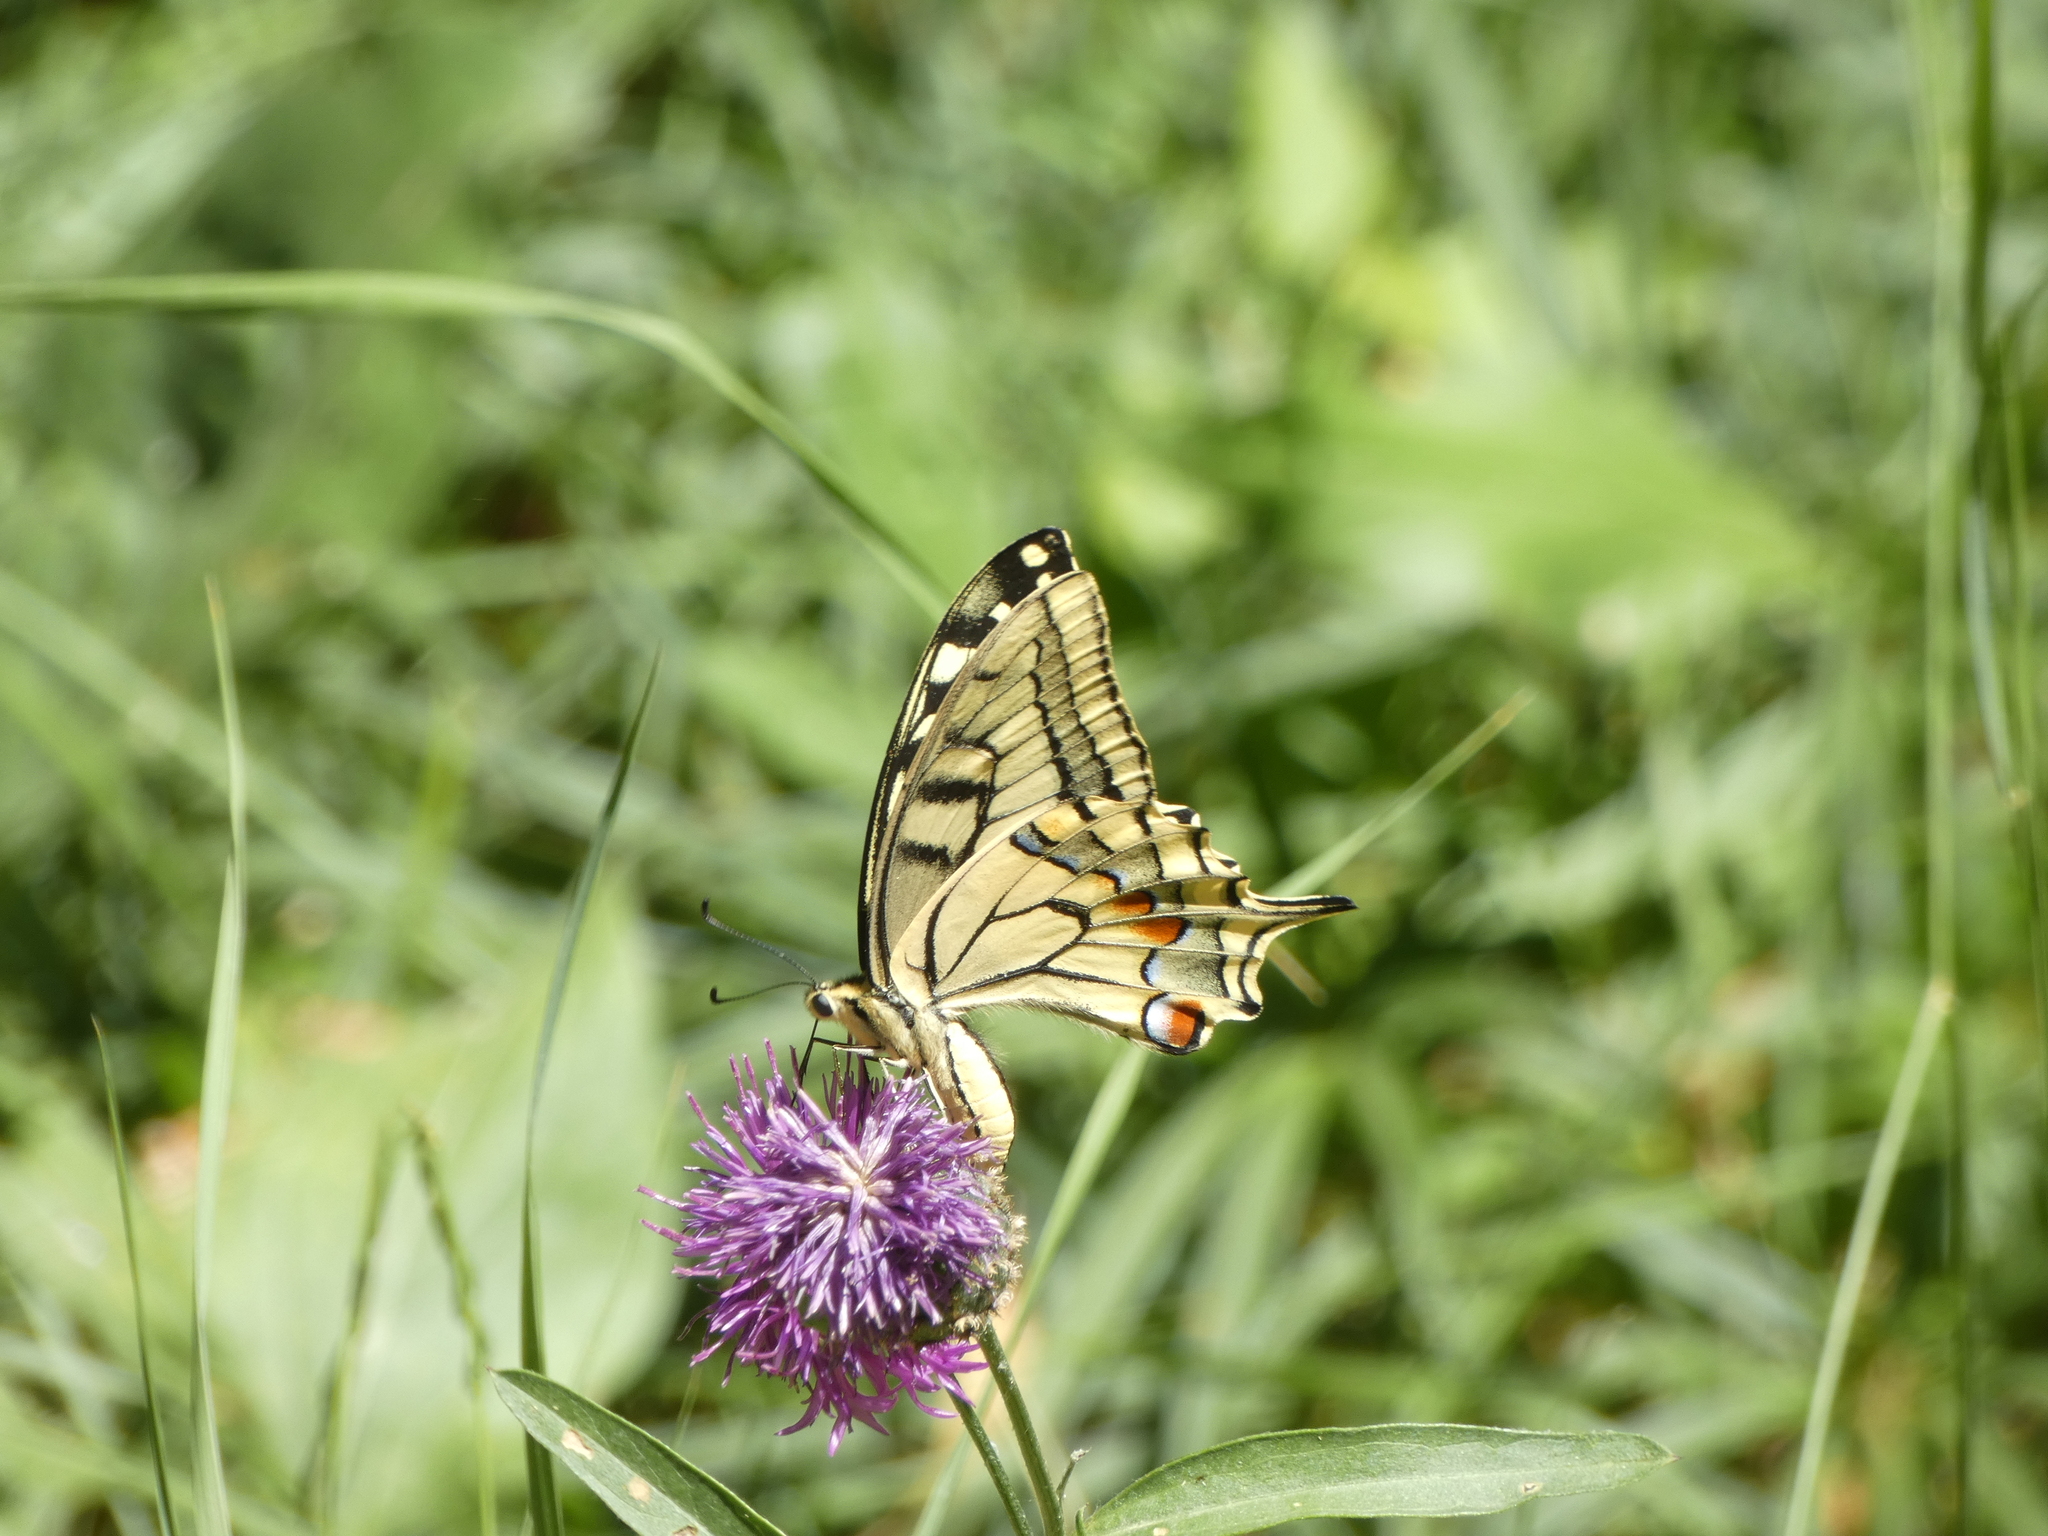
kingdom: Animalia
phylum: Arthropoda
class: Insecta
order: Lepidoptera
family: Papilionidae
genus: Papilio
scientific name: Papilio machaon
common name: Swallowtail
